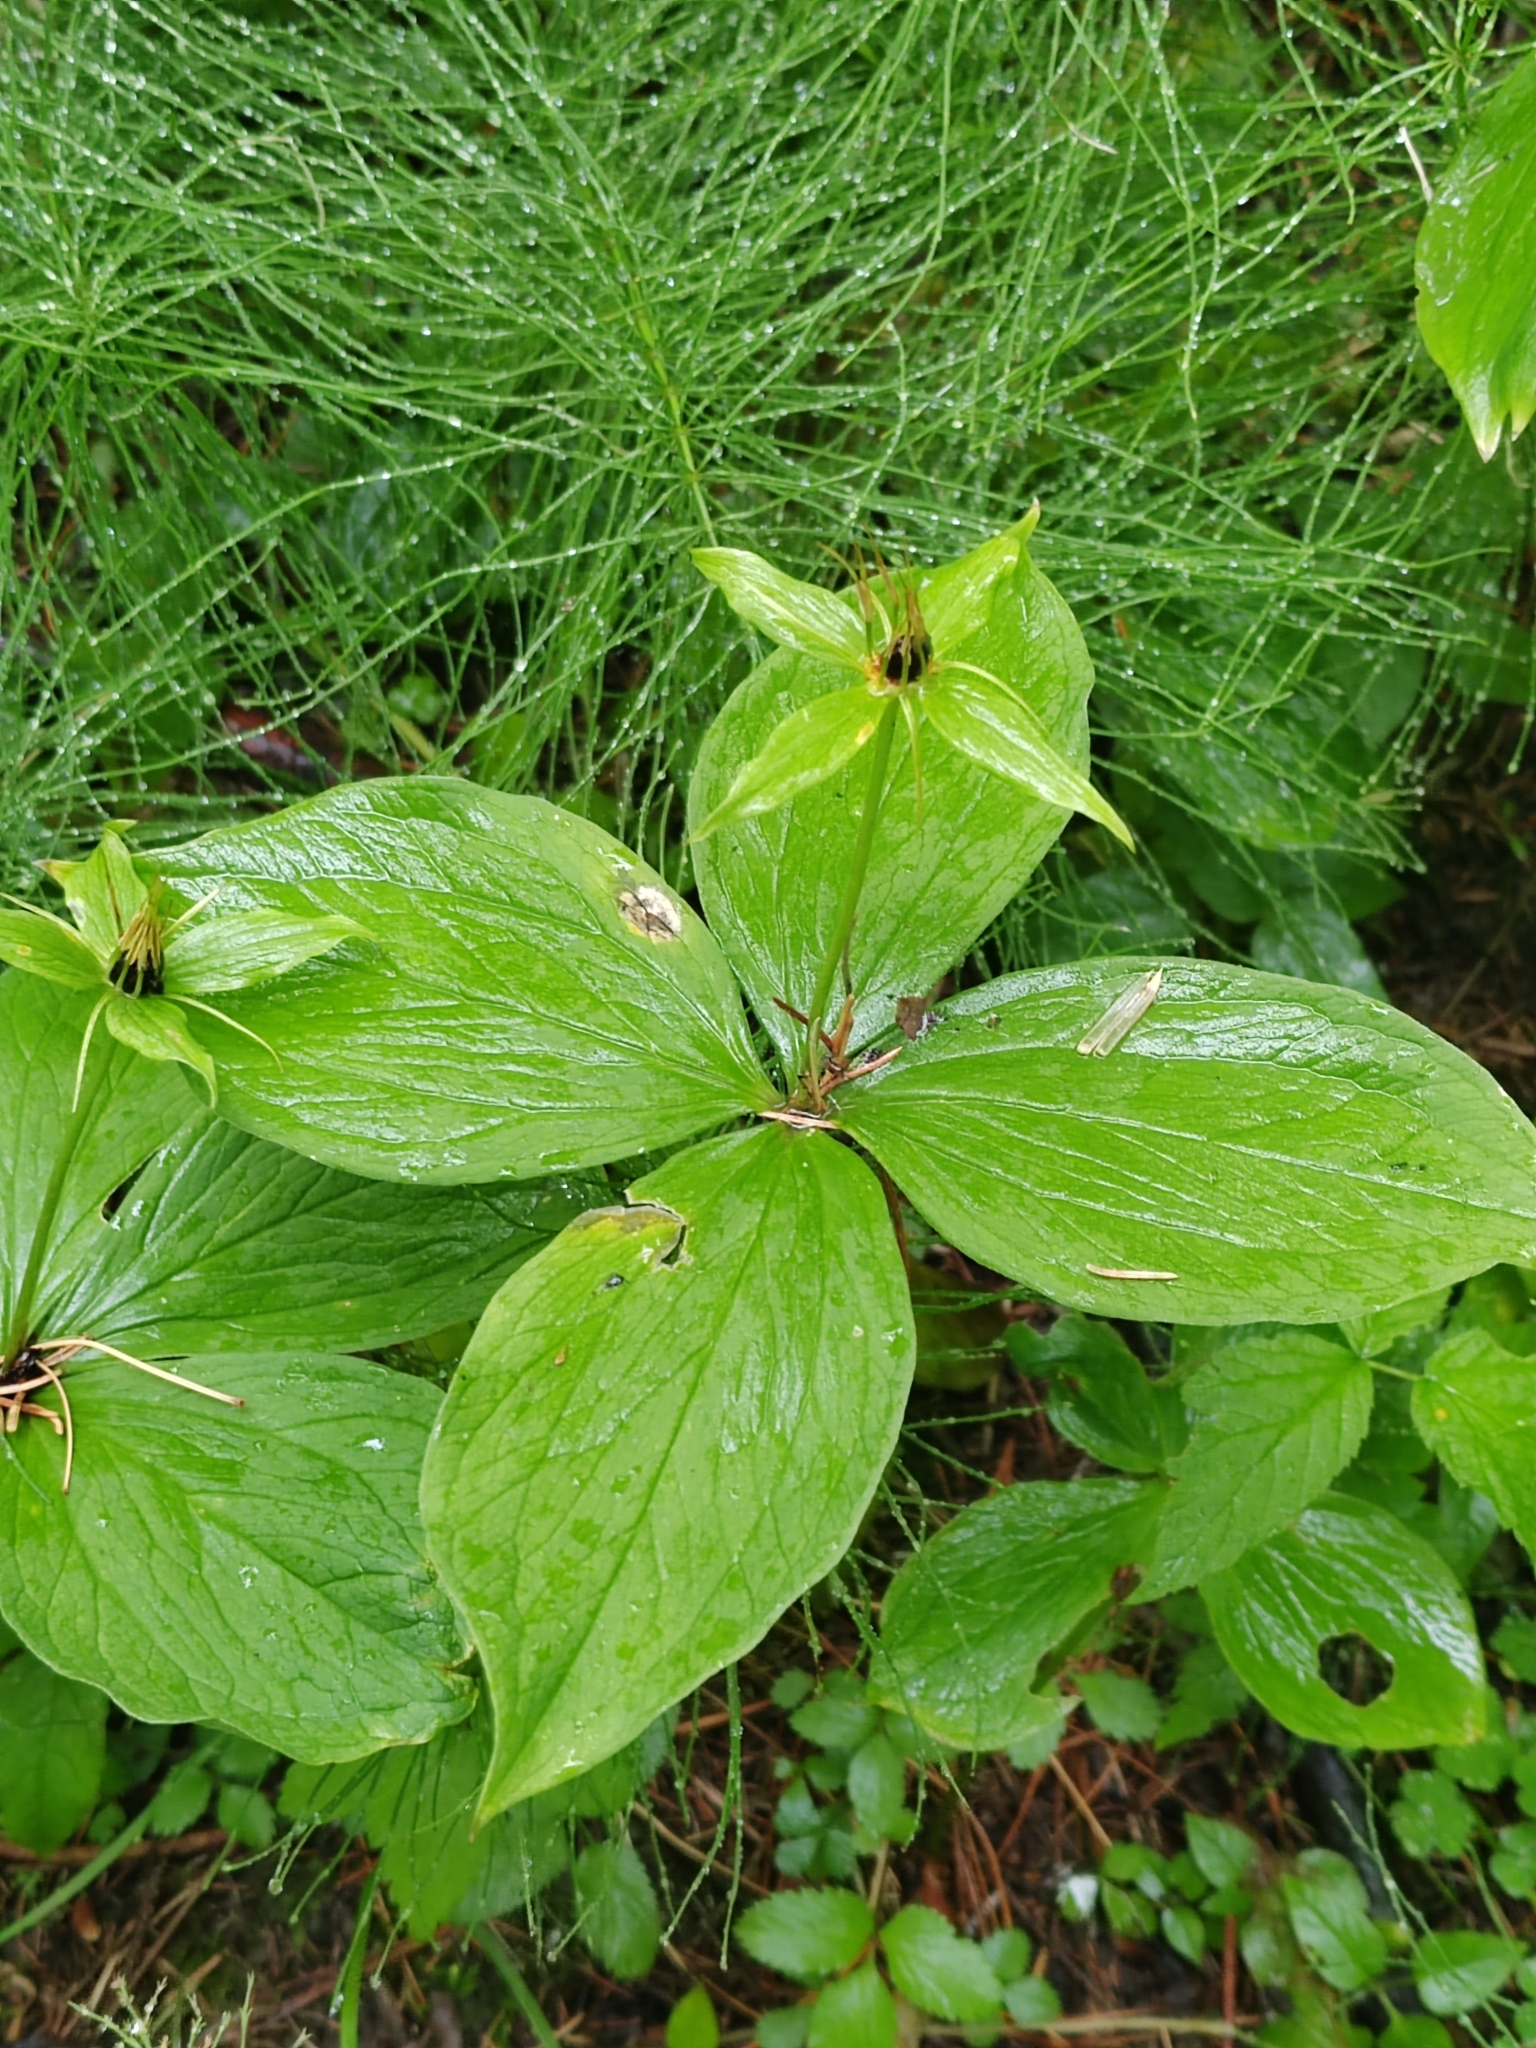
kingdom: Plantae
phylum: Tracheophyta
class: Liliopsida
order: Liliales
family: Melanthiaceae
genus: Paris
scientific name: Paris quadrifolia
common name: Herb-paris
